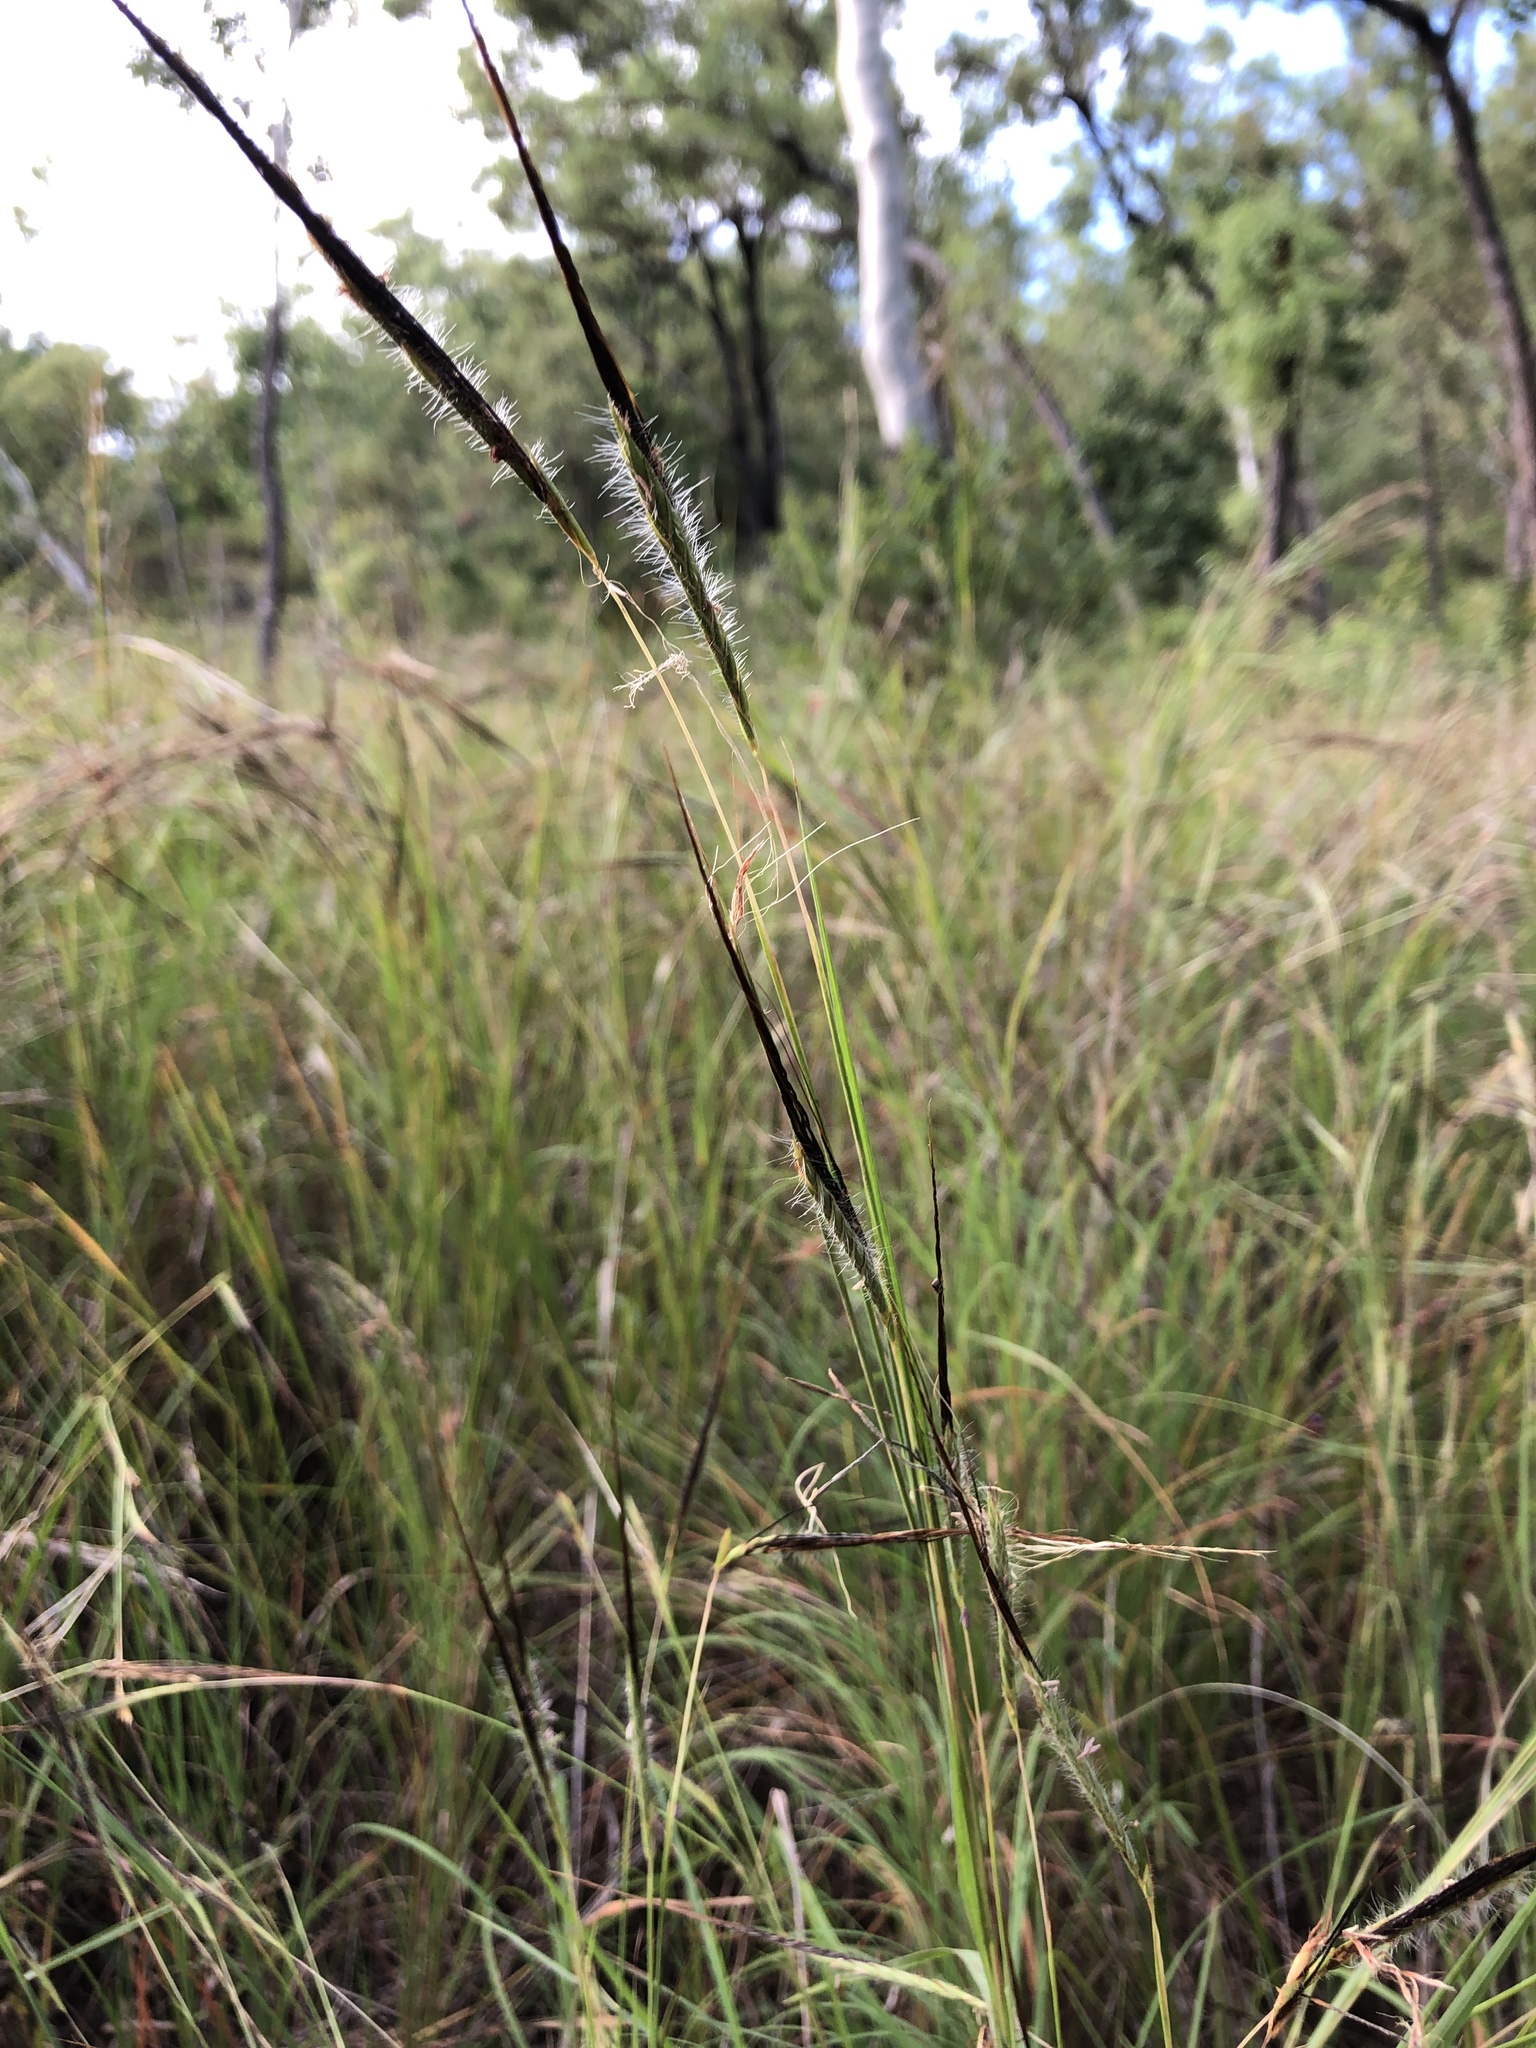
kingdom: Plantae
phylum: Tracheophyta
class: Liliopsida
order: Poales
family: Poaceae
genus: Heteropogon
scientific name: Heteropogon contortus
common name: Tanglehead
